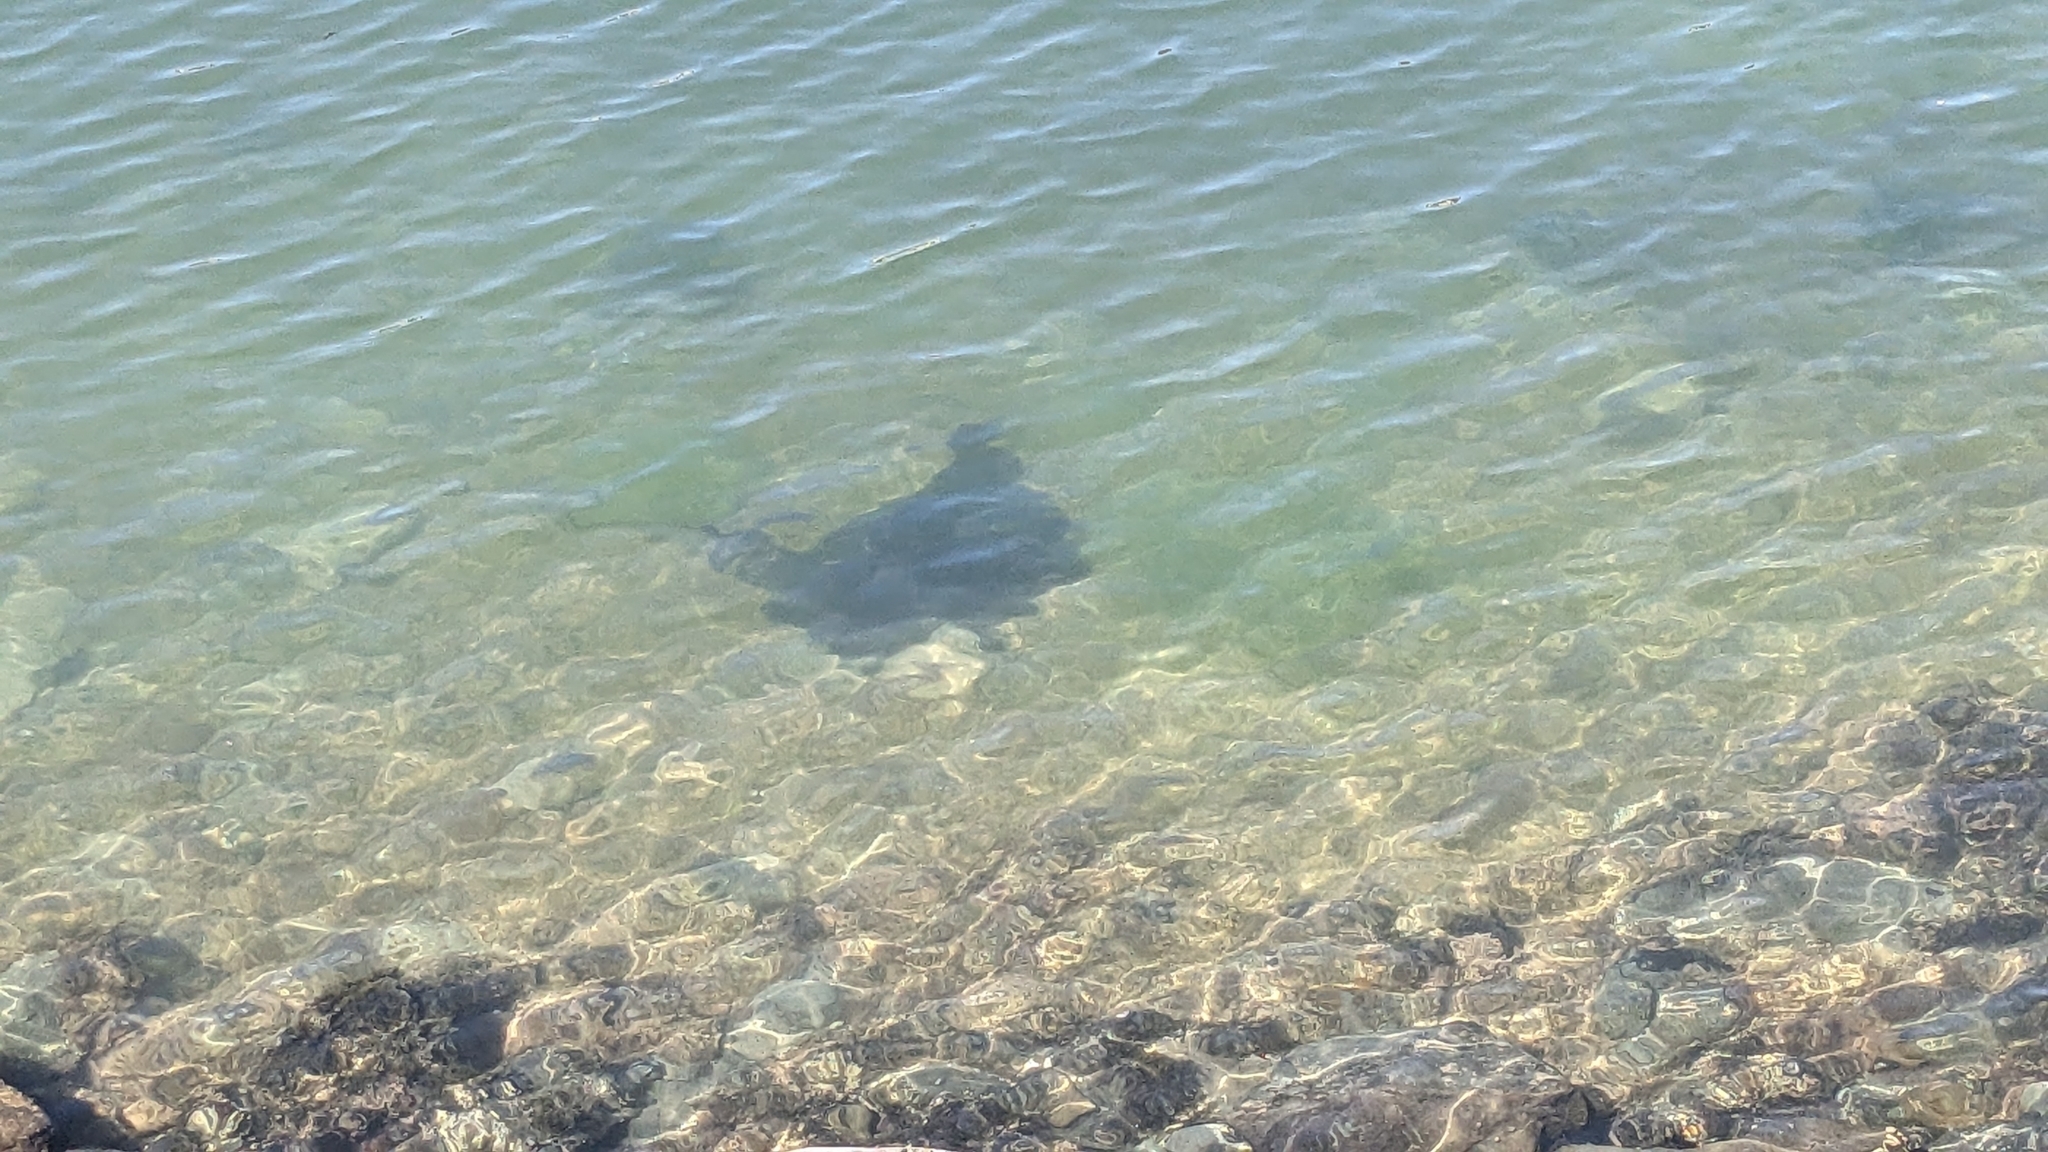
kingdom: Animalia
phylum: Chordata
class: Elasmobranchii
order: Myliobatiformes
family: Myliobatidae
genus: Myliobatis
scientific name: Myliobatis tenuicaudatus
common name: Eagle ray
